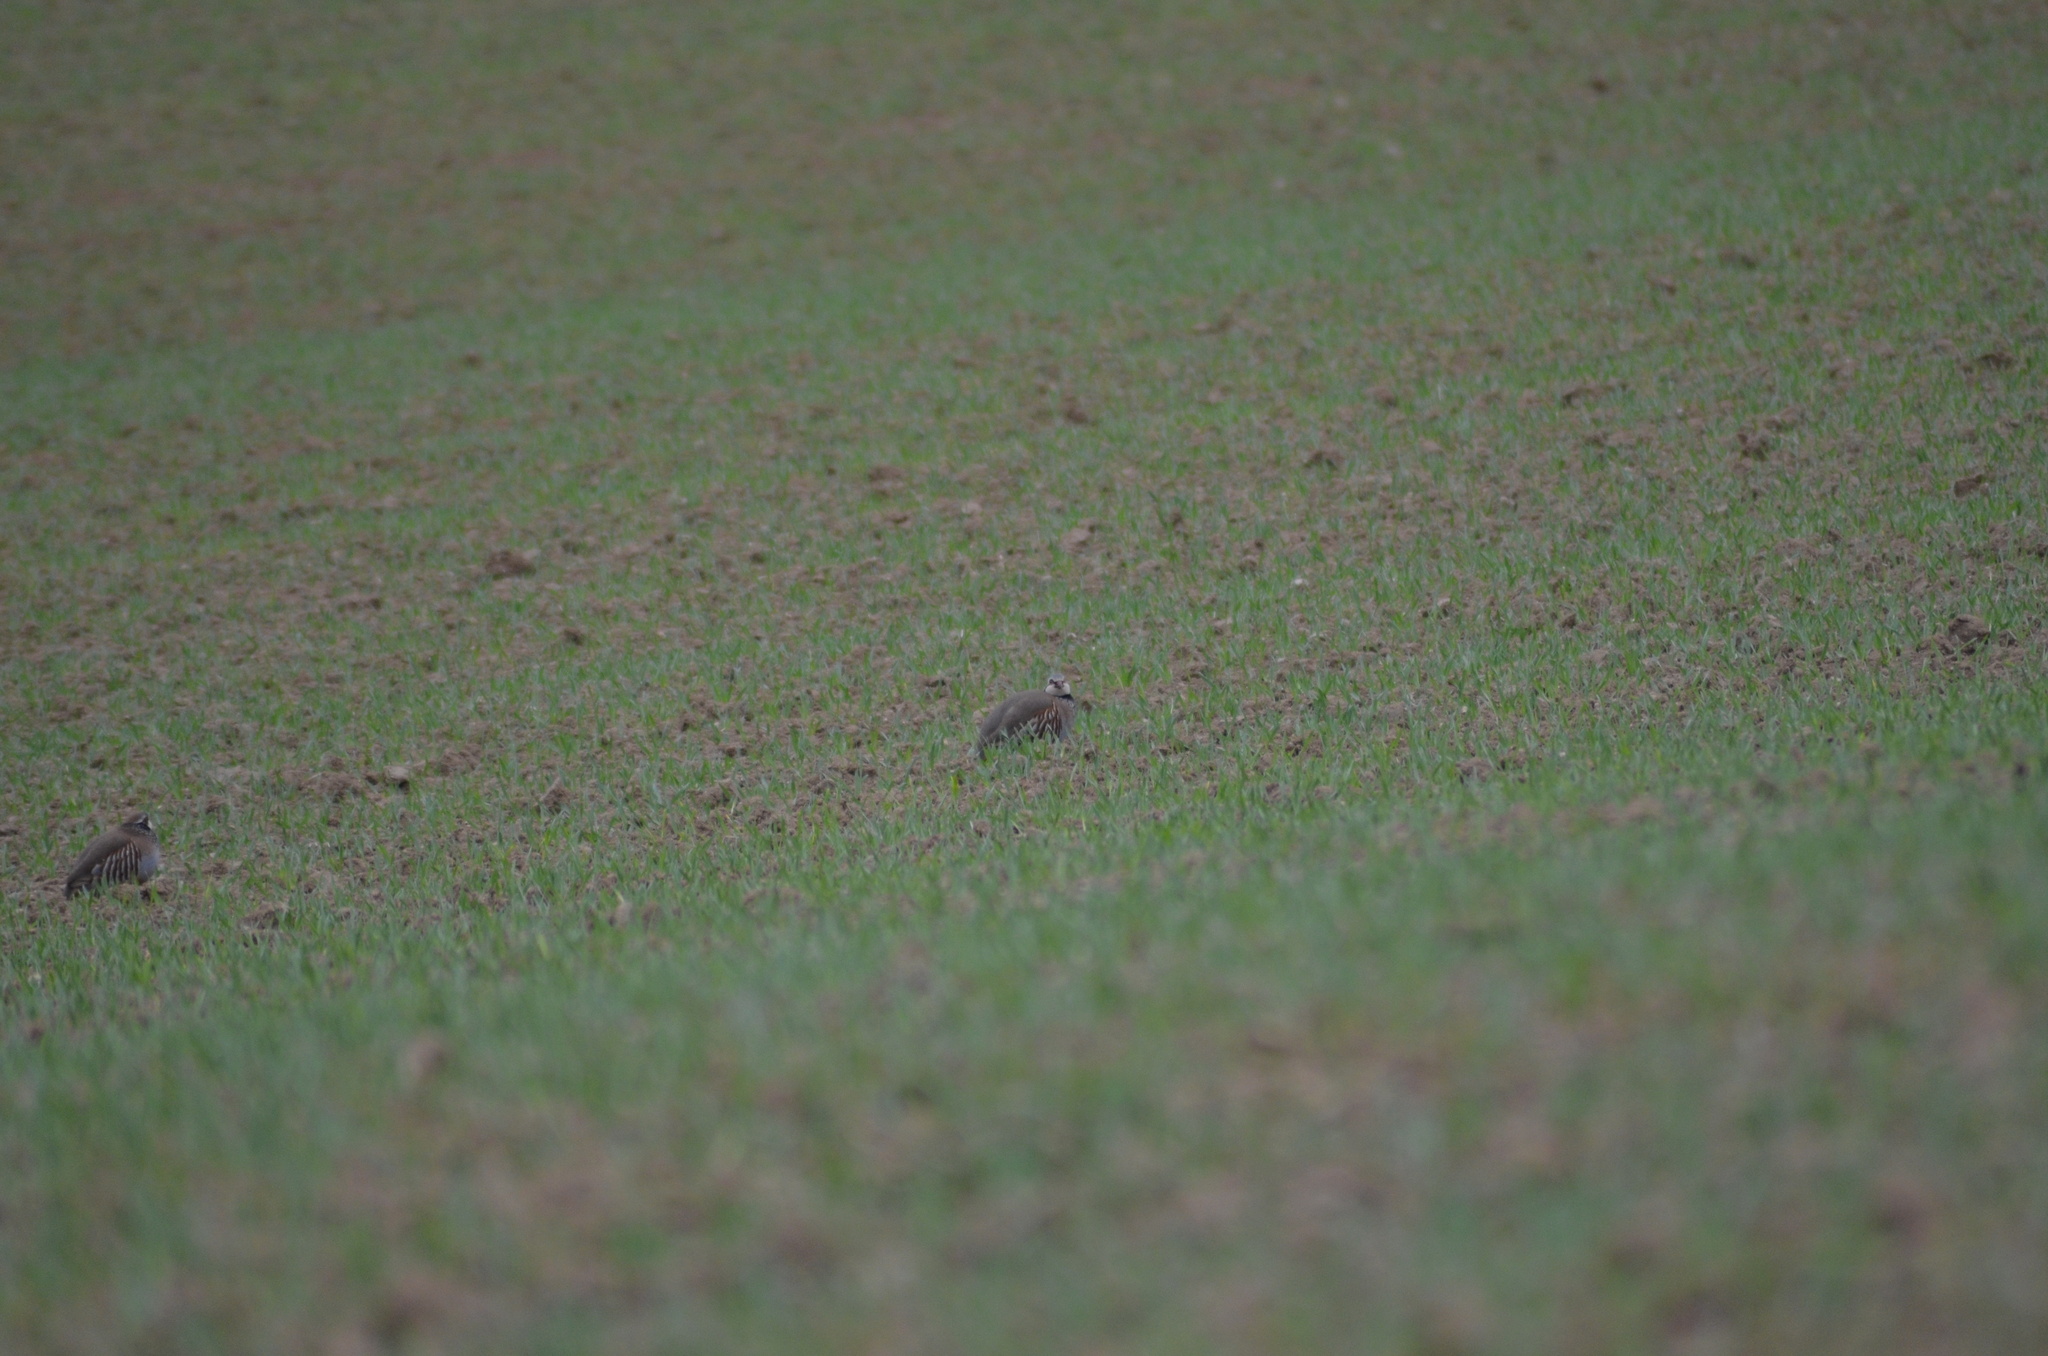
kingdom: Animalia
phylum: Chordata
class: Aves
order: Galliformes
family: Phasianidae
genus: Alectoris
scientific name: Alectoris rufa
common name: Red-legged partridge
